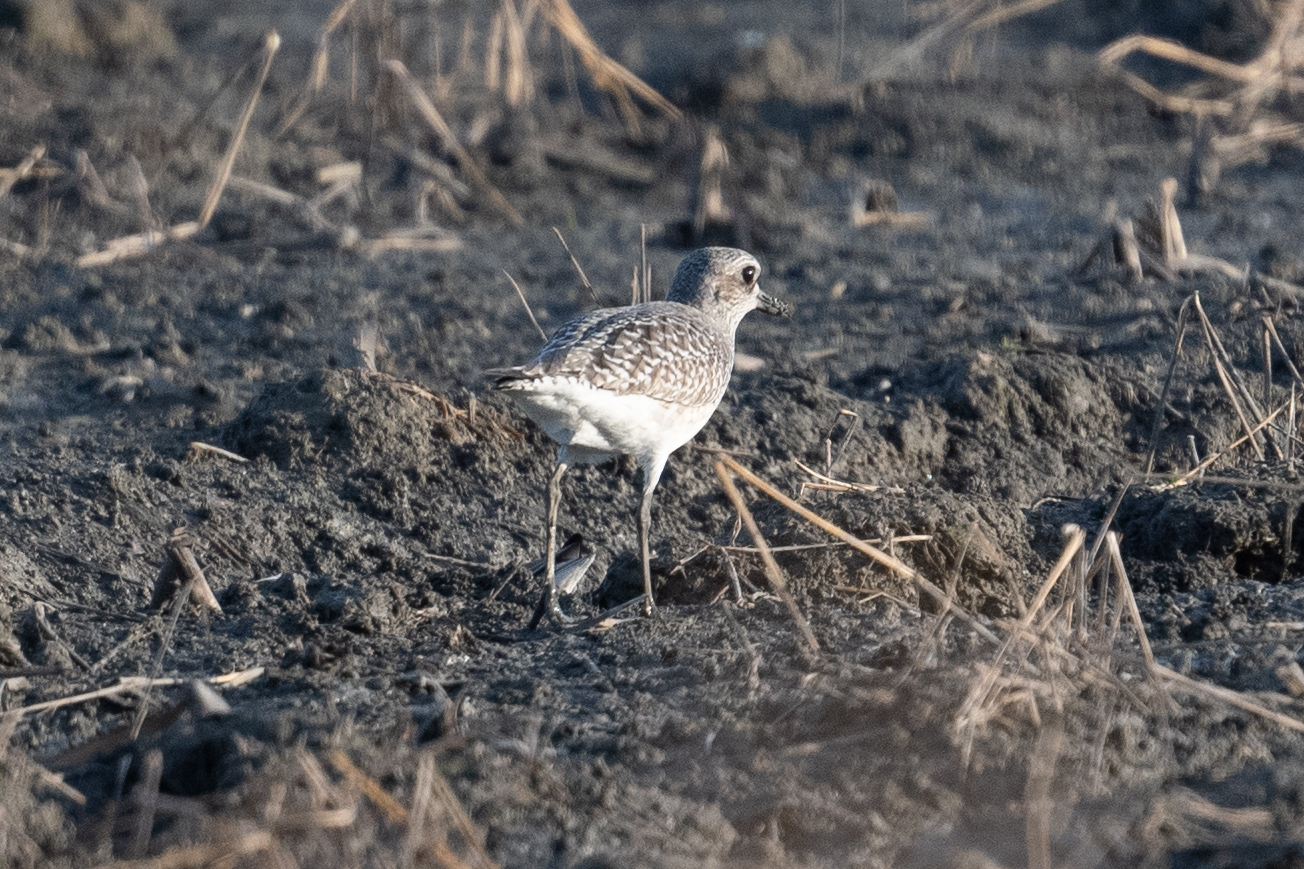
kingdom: Animalia
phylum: Chordata
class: Aves
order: Charadriiformes
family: Charadriidae
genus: Pluvialis
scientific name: Pluvialis squatarola
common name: Grey plover
